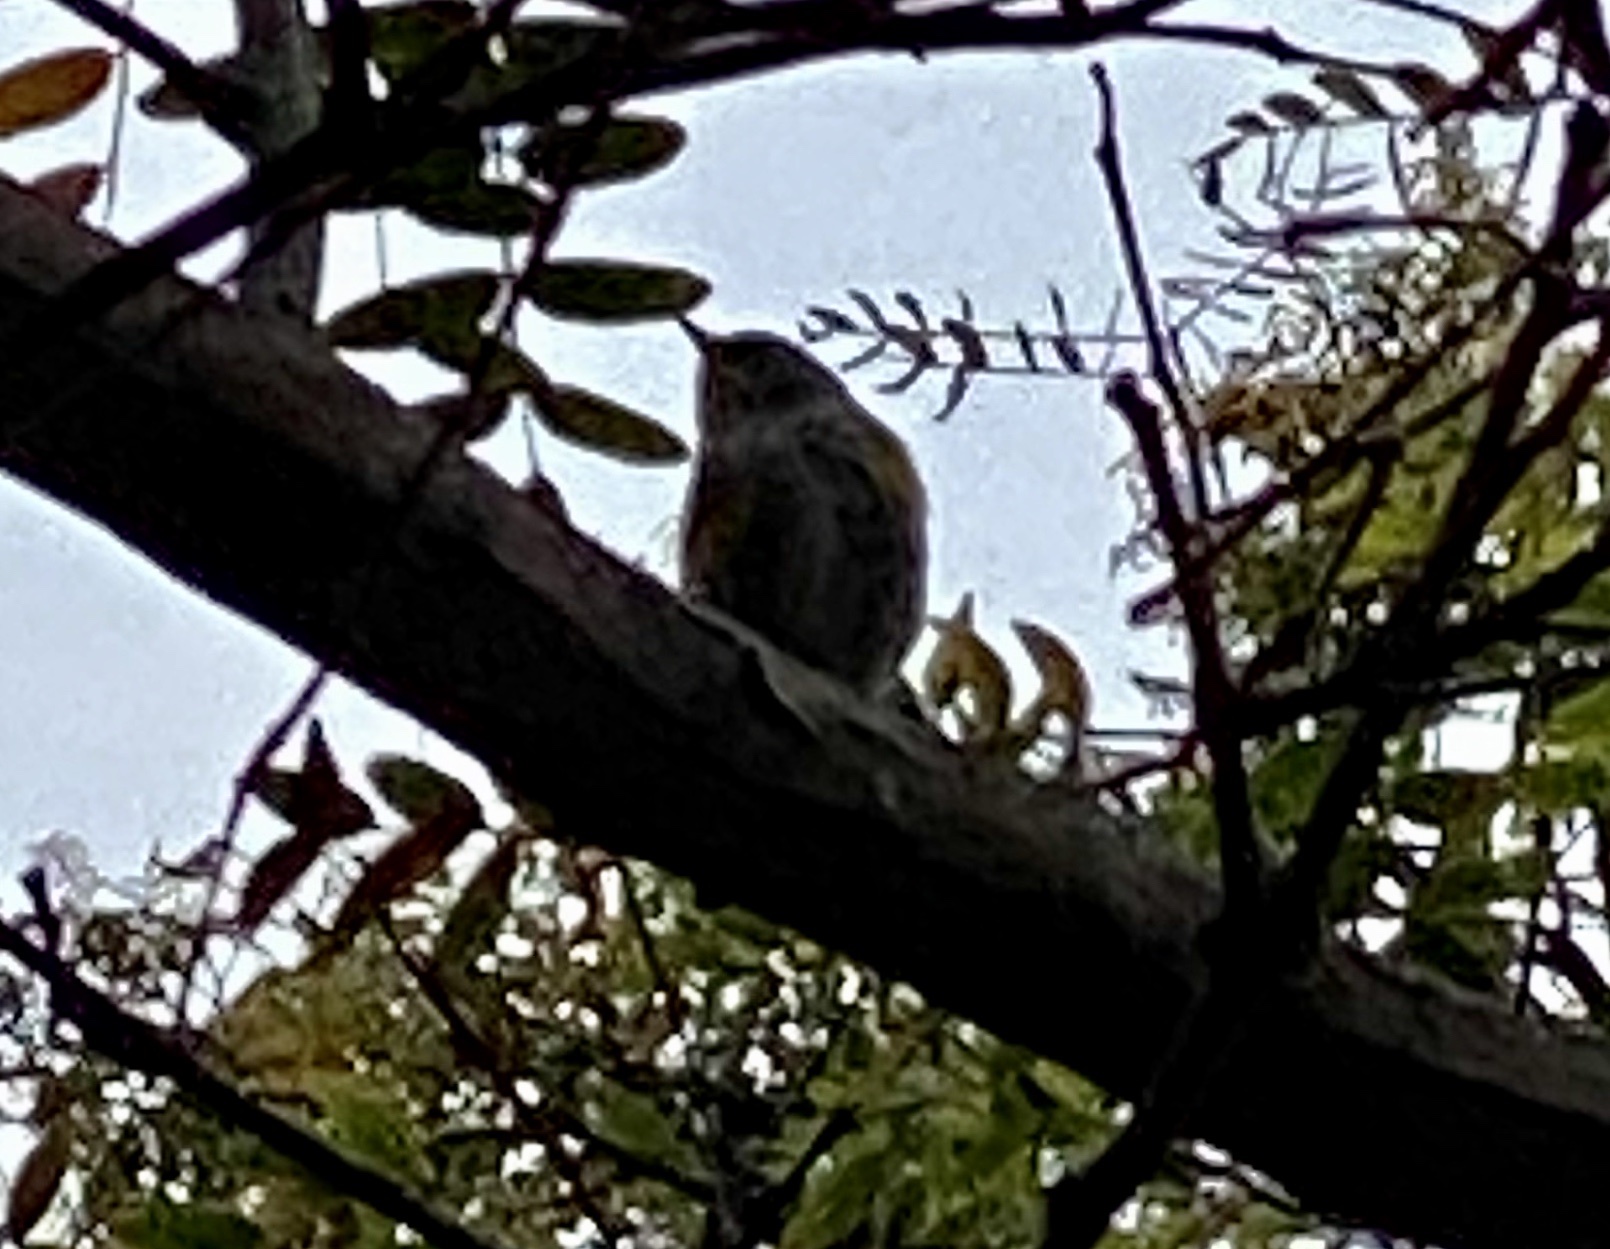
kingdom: Animalia
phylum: Chordata
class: Aves
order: Passeriformes
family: Parulidae
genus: Setophaga
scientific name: Setophaga coronata
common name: Myrtle warbler
